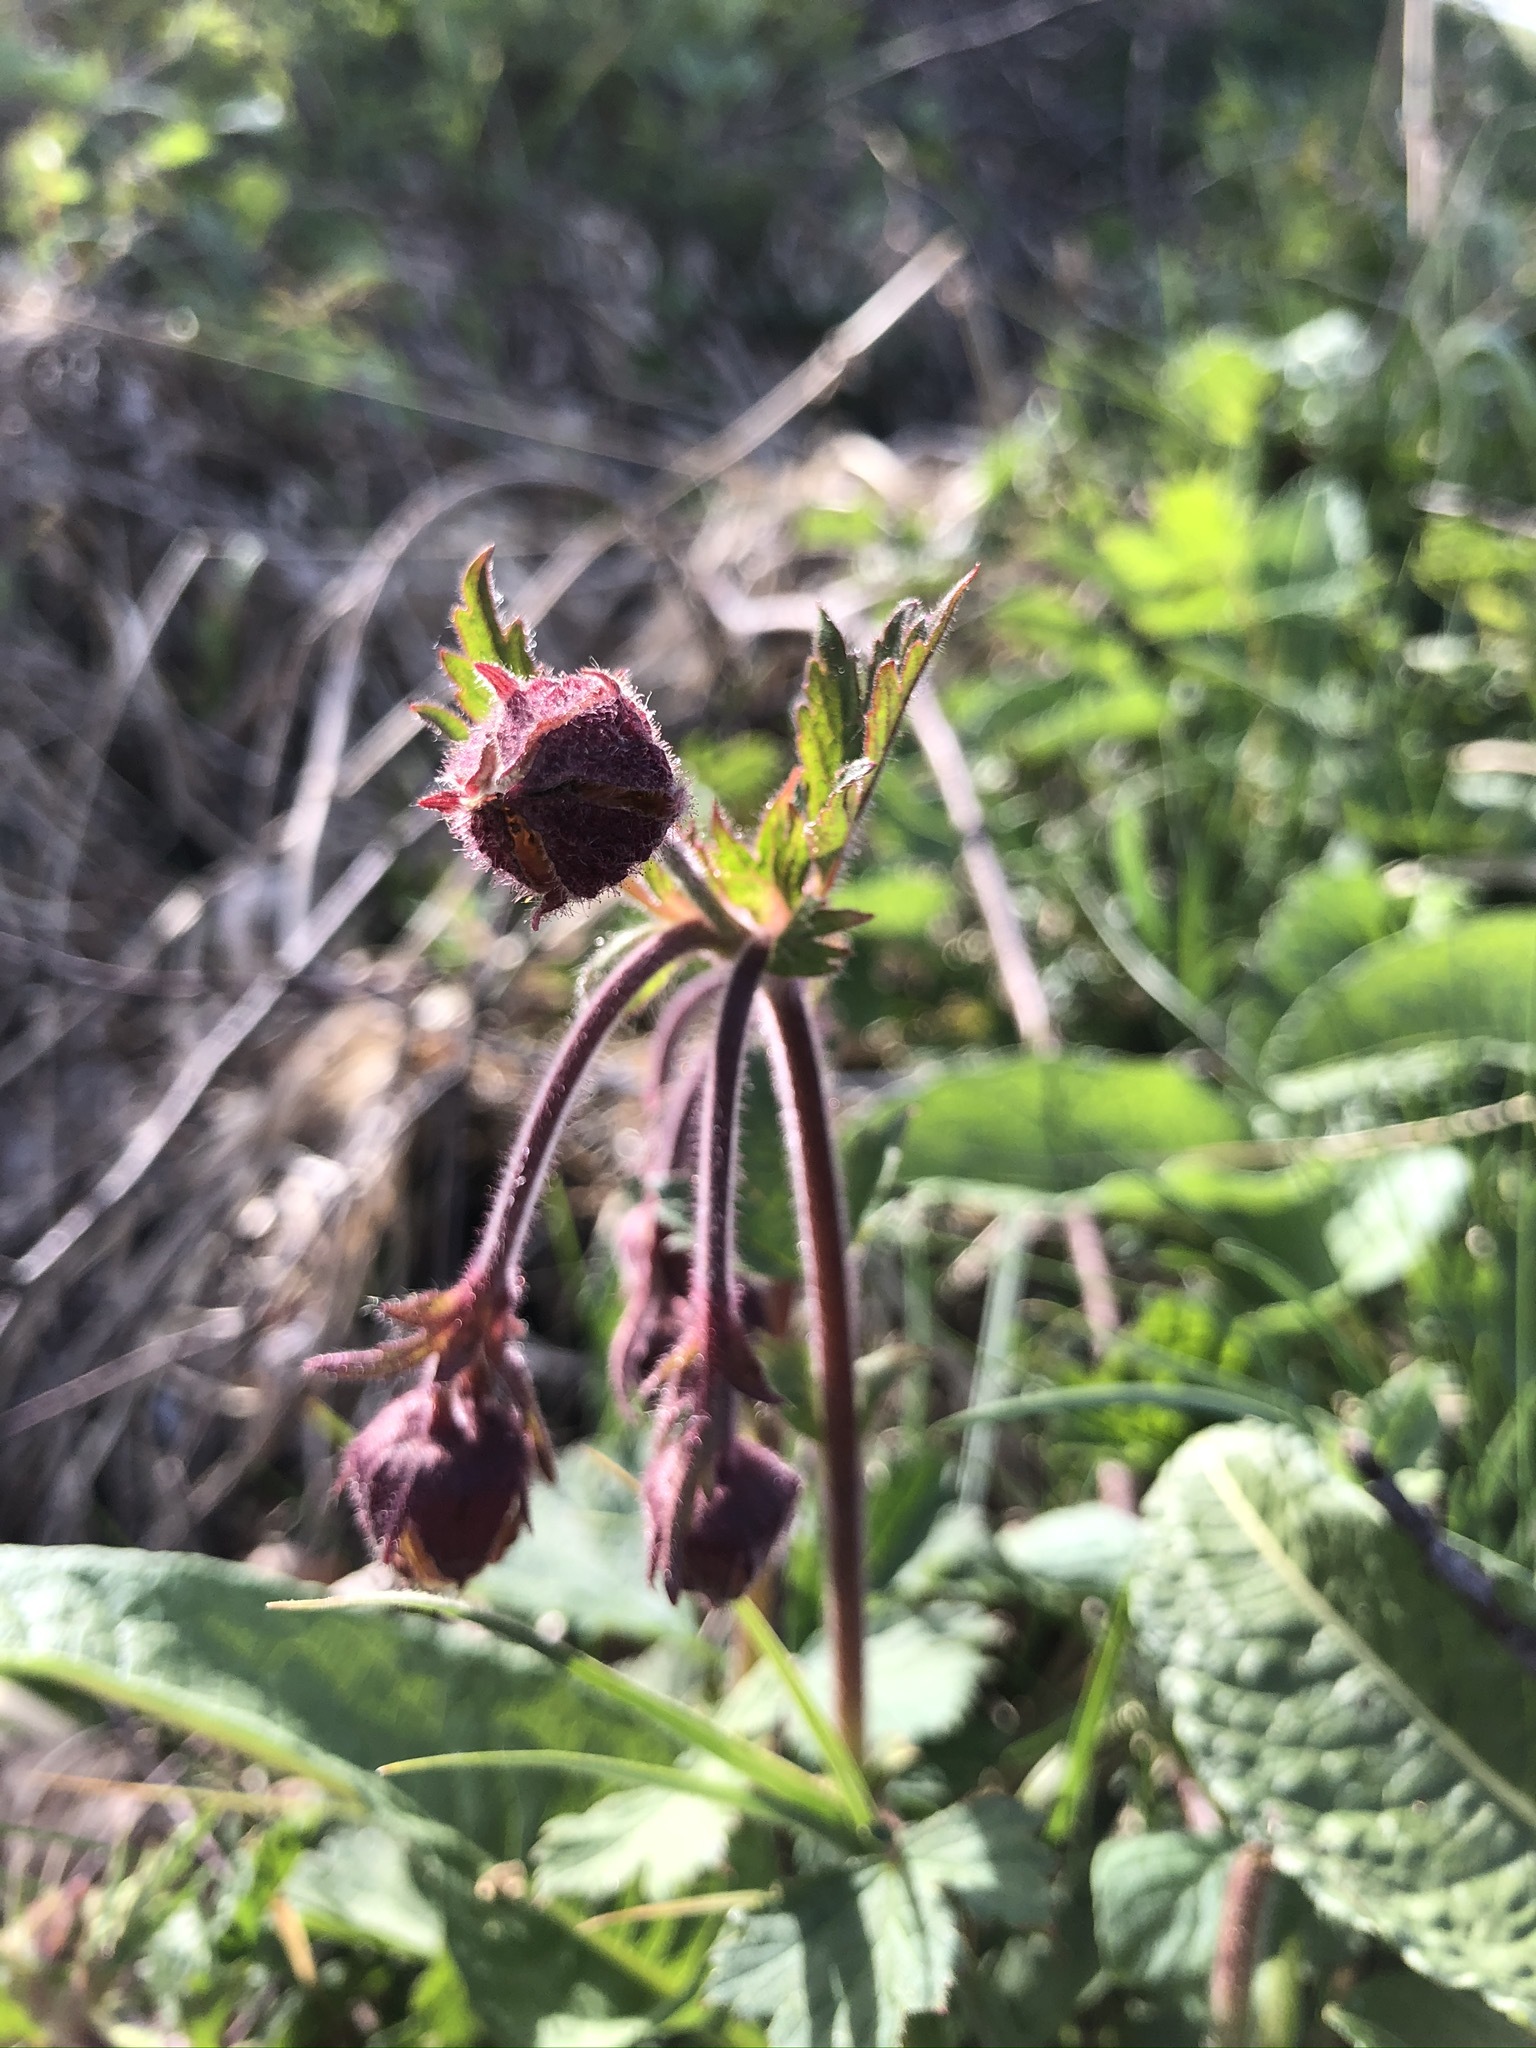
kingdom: Plantae
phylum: Tracheophyta
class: Magnoliopsida
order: Rosales
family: Rosaceae
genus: Geum
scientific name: Geum rivale
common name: Water avens
